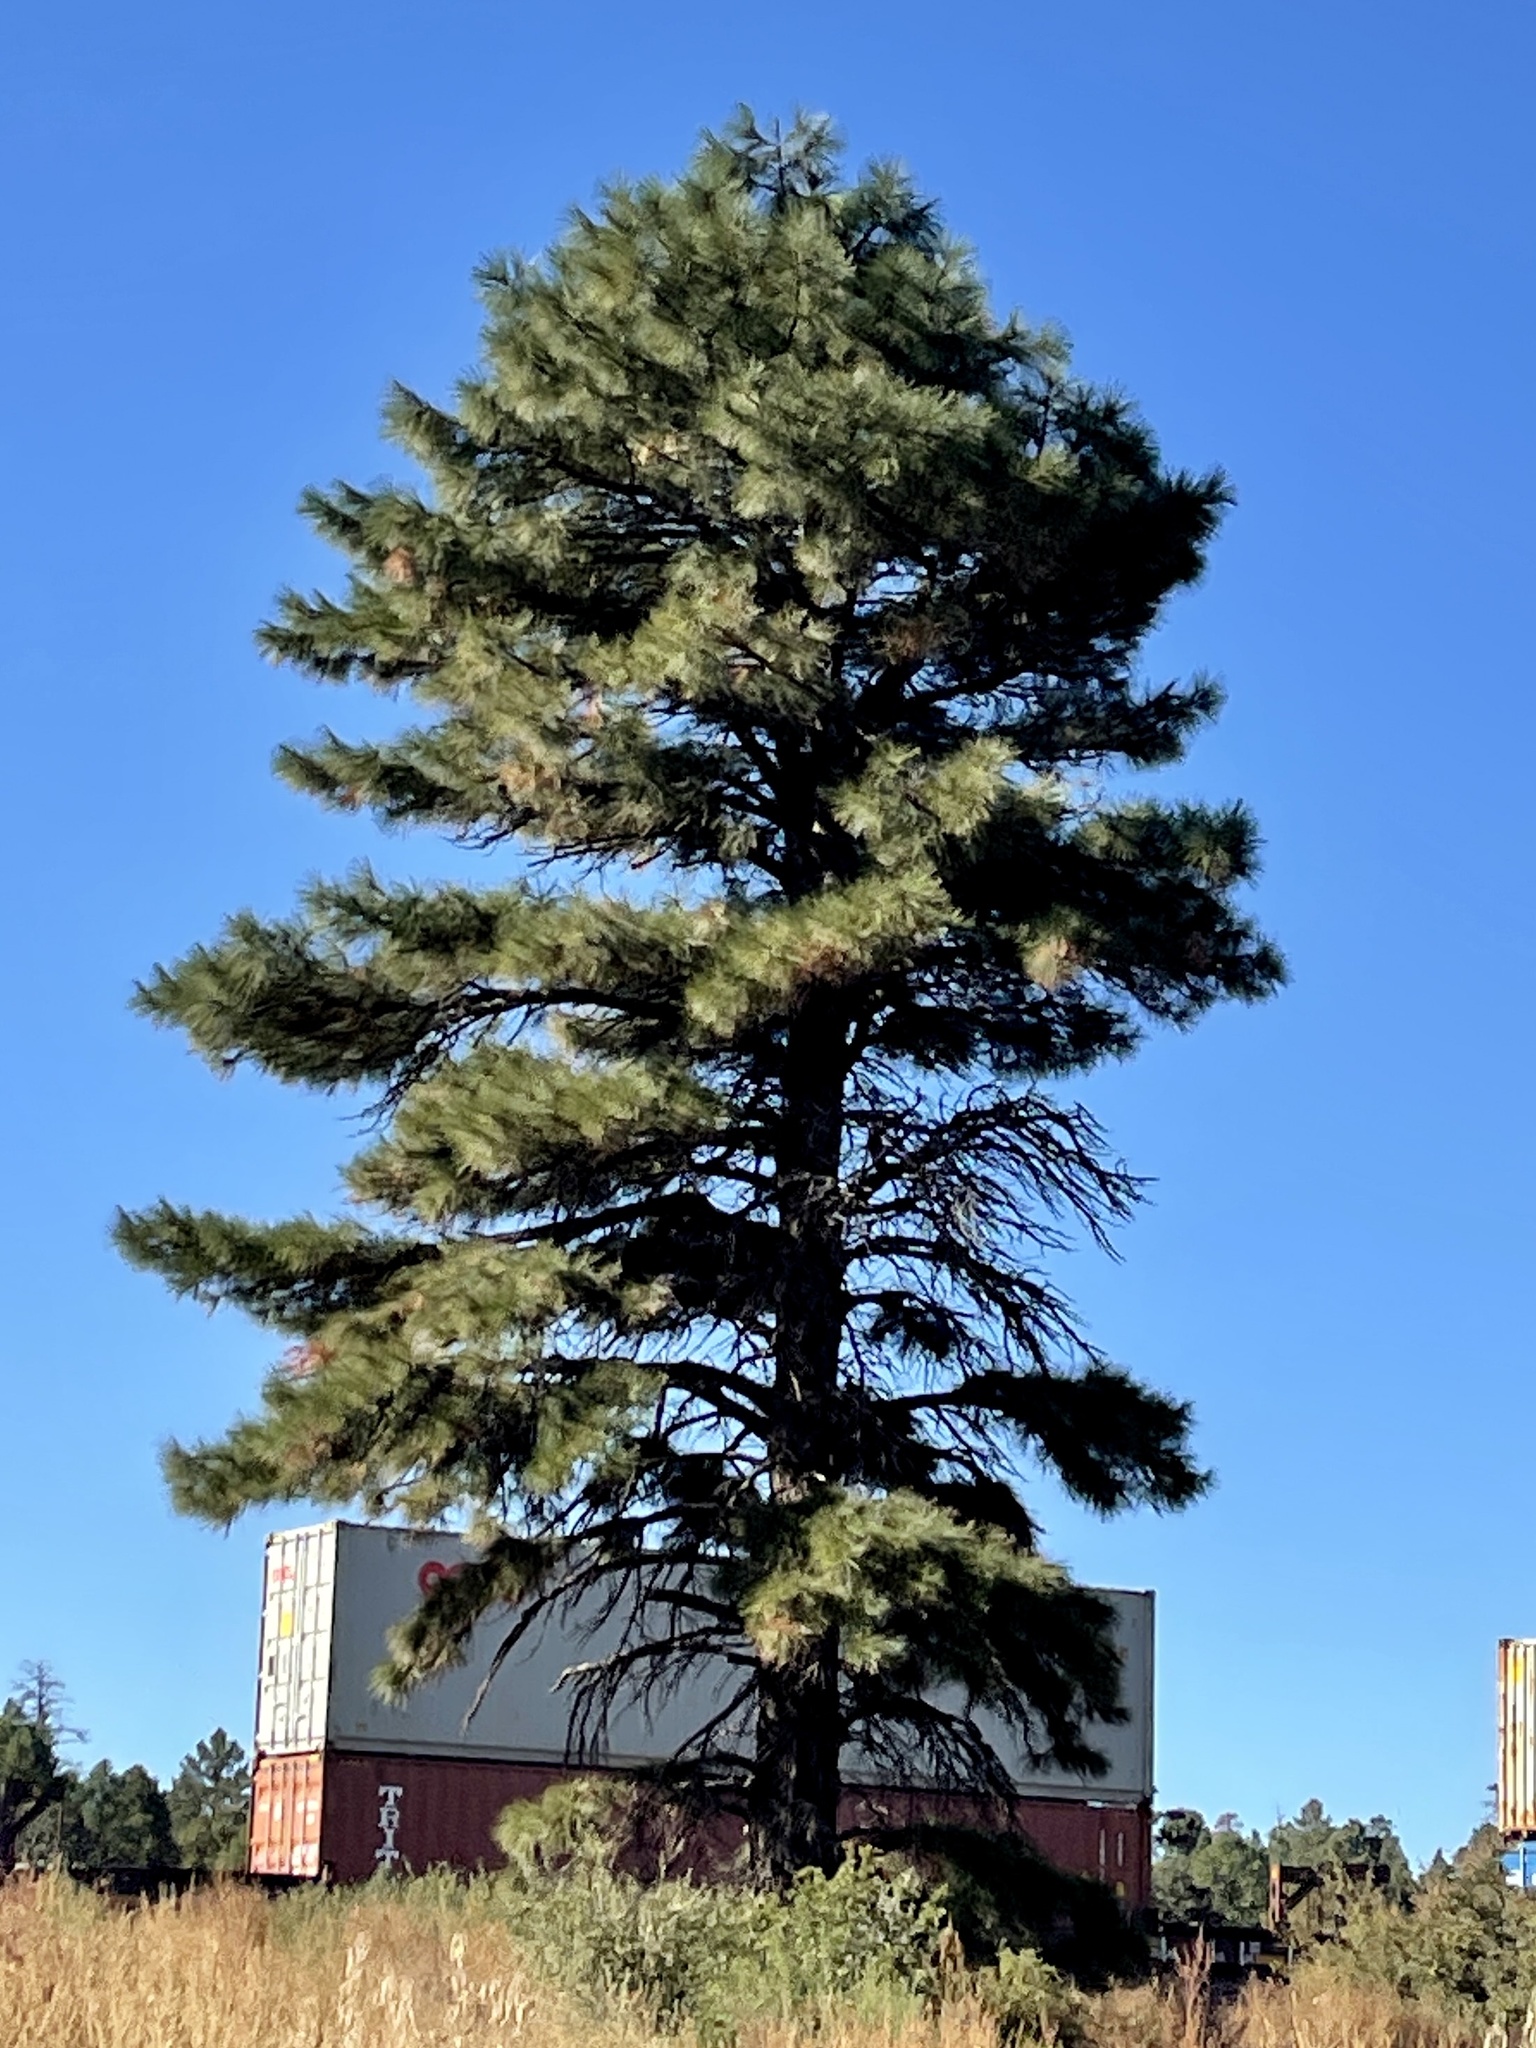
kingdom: Plantae
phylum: Tracheophyta
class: Pinopsida
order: Pinales
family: Pinaceae
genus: Pinus
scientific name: Pinus ponderosa
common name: Western yellow-pine
